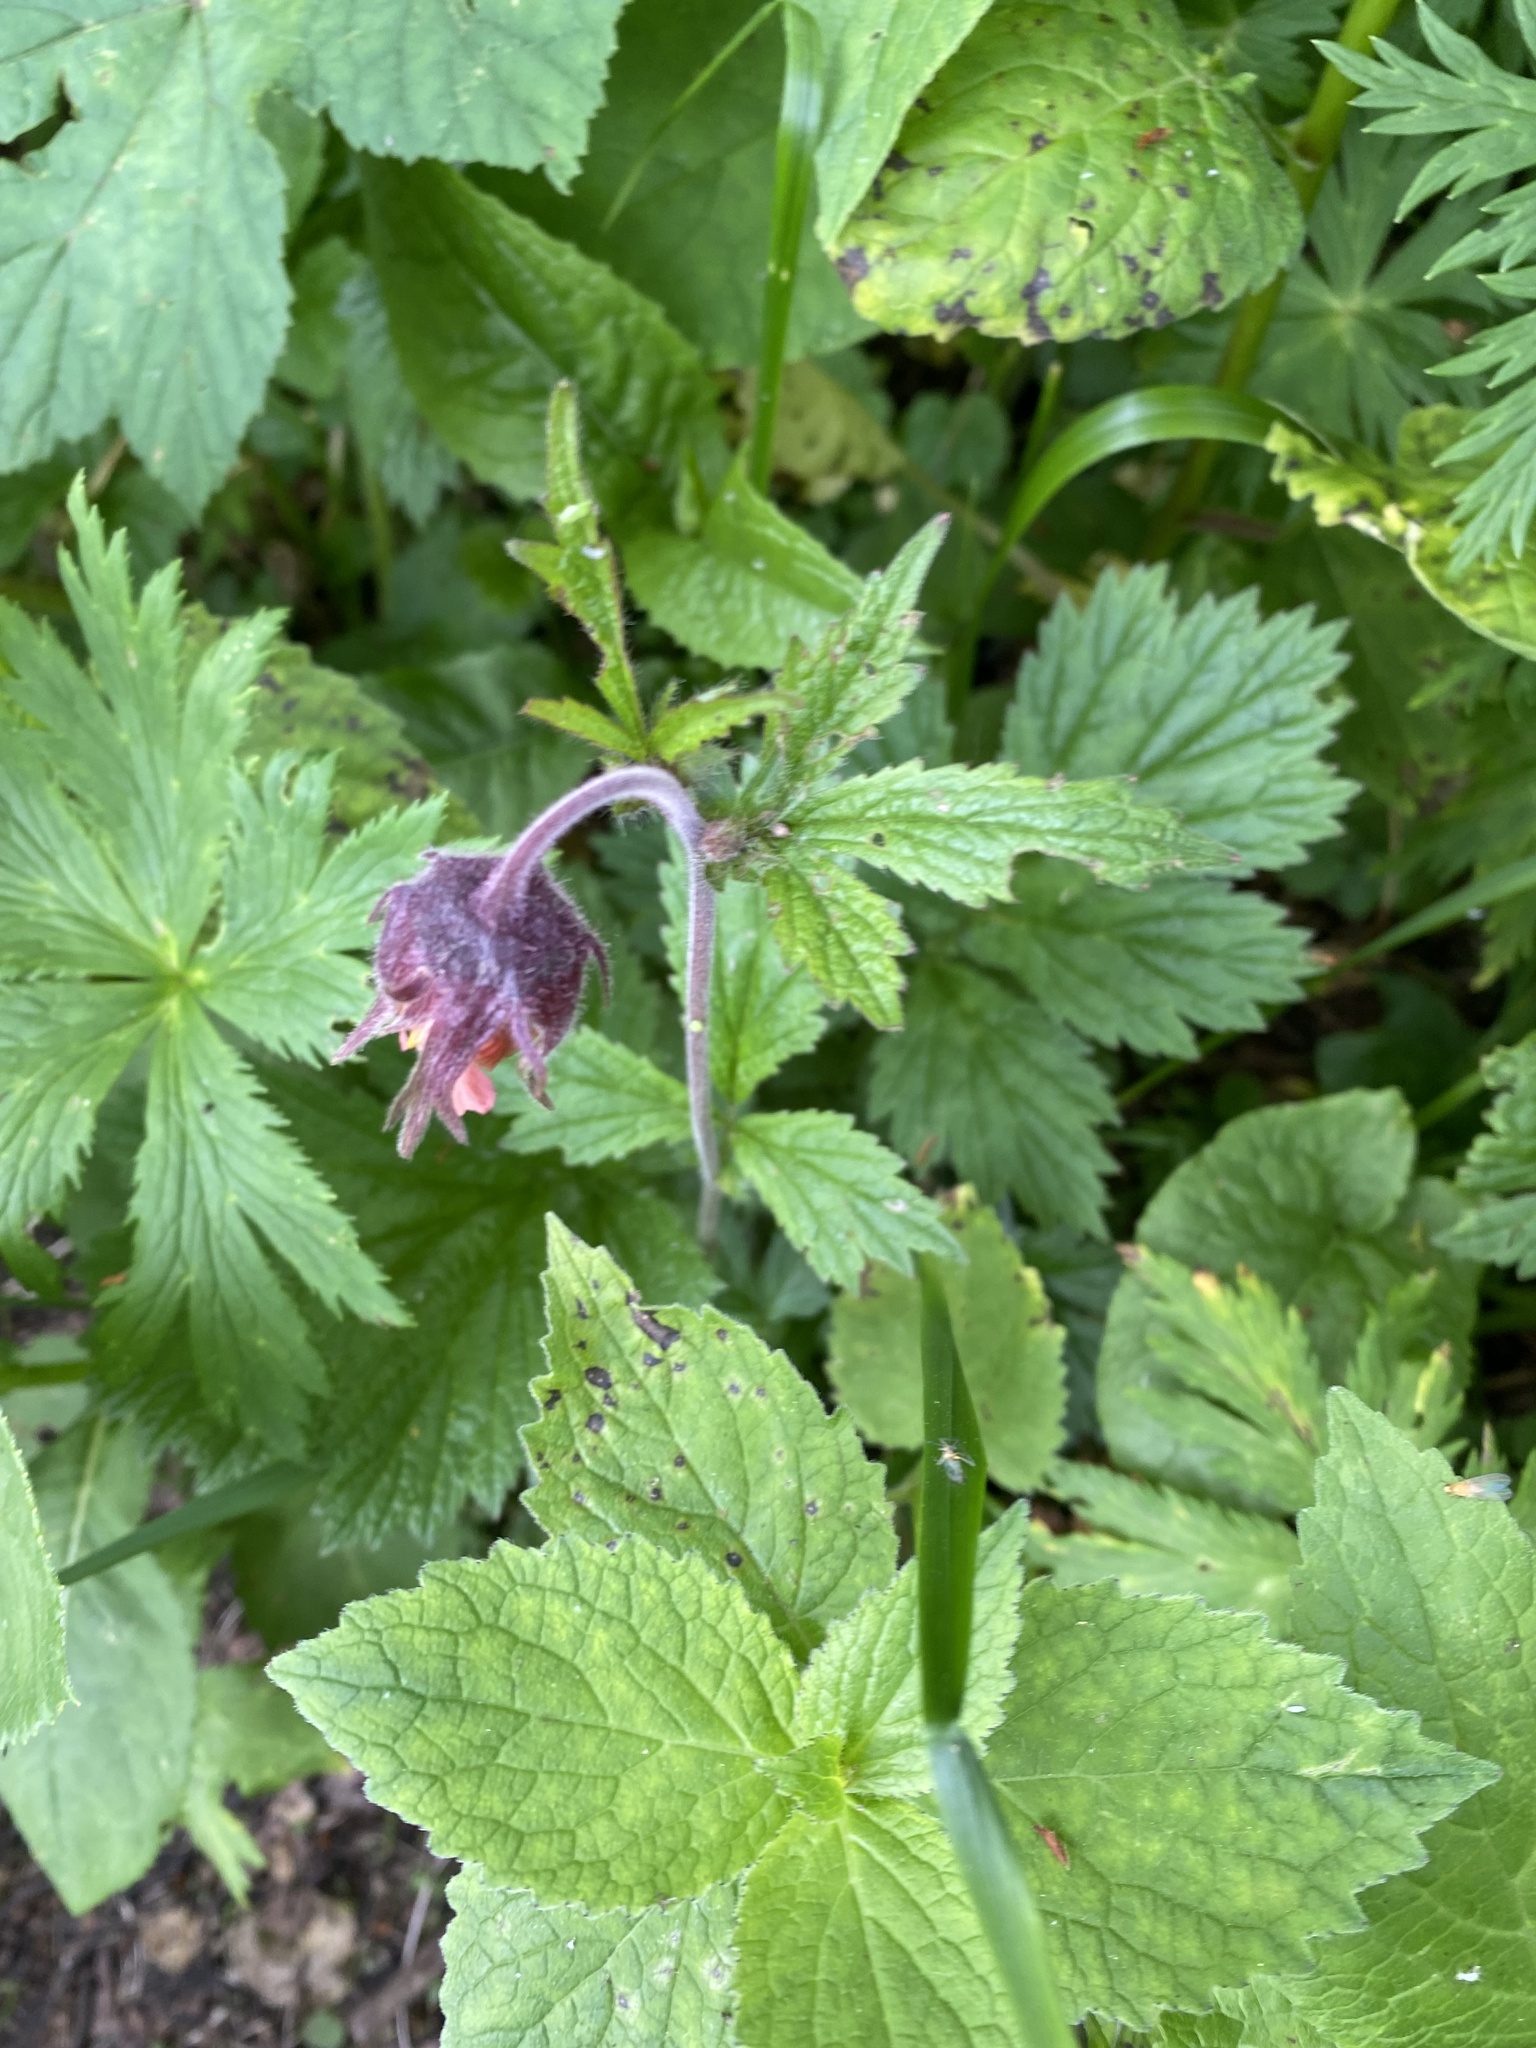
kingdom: Plantae
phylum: Tracheophyta
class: Magnoliopsida
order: Rosales
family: Rosaceae
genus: Geum
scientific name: Geum rivale
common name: Water avens
